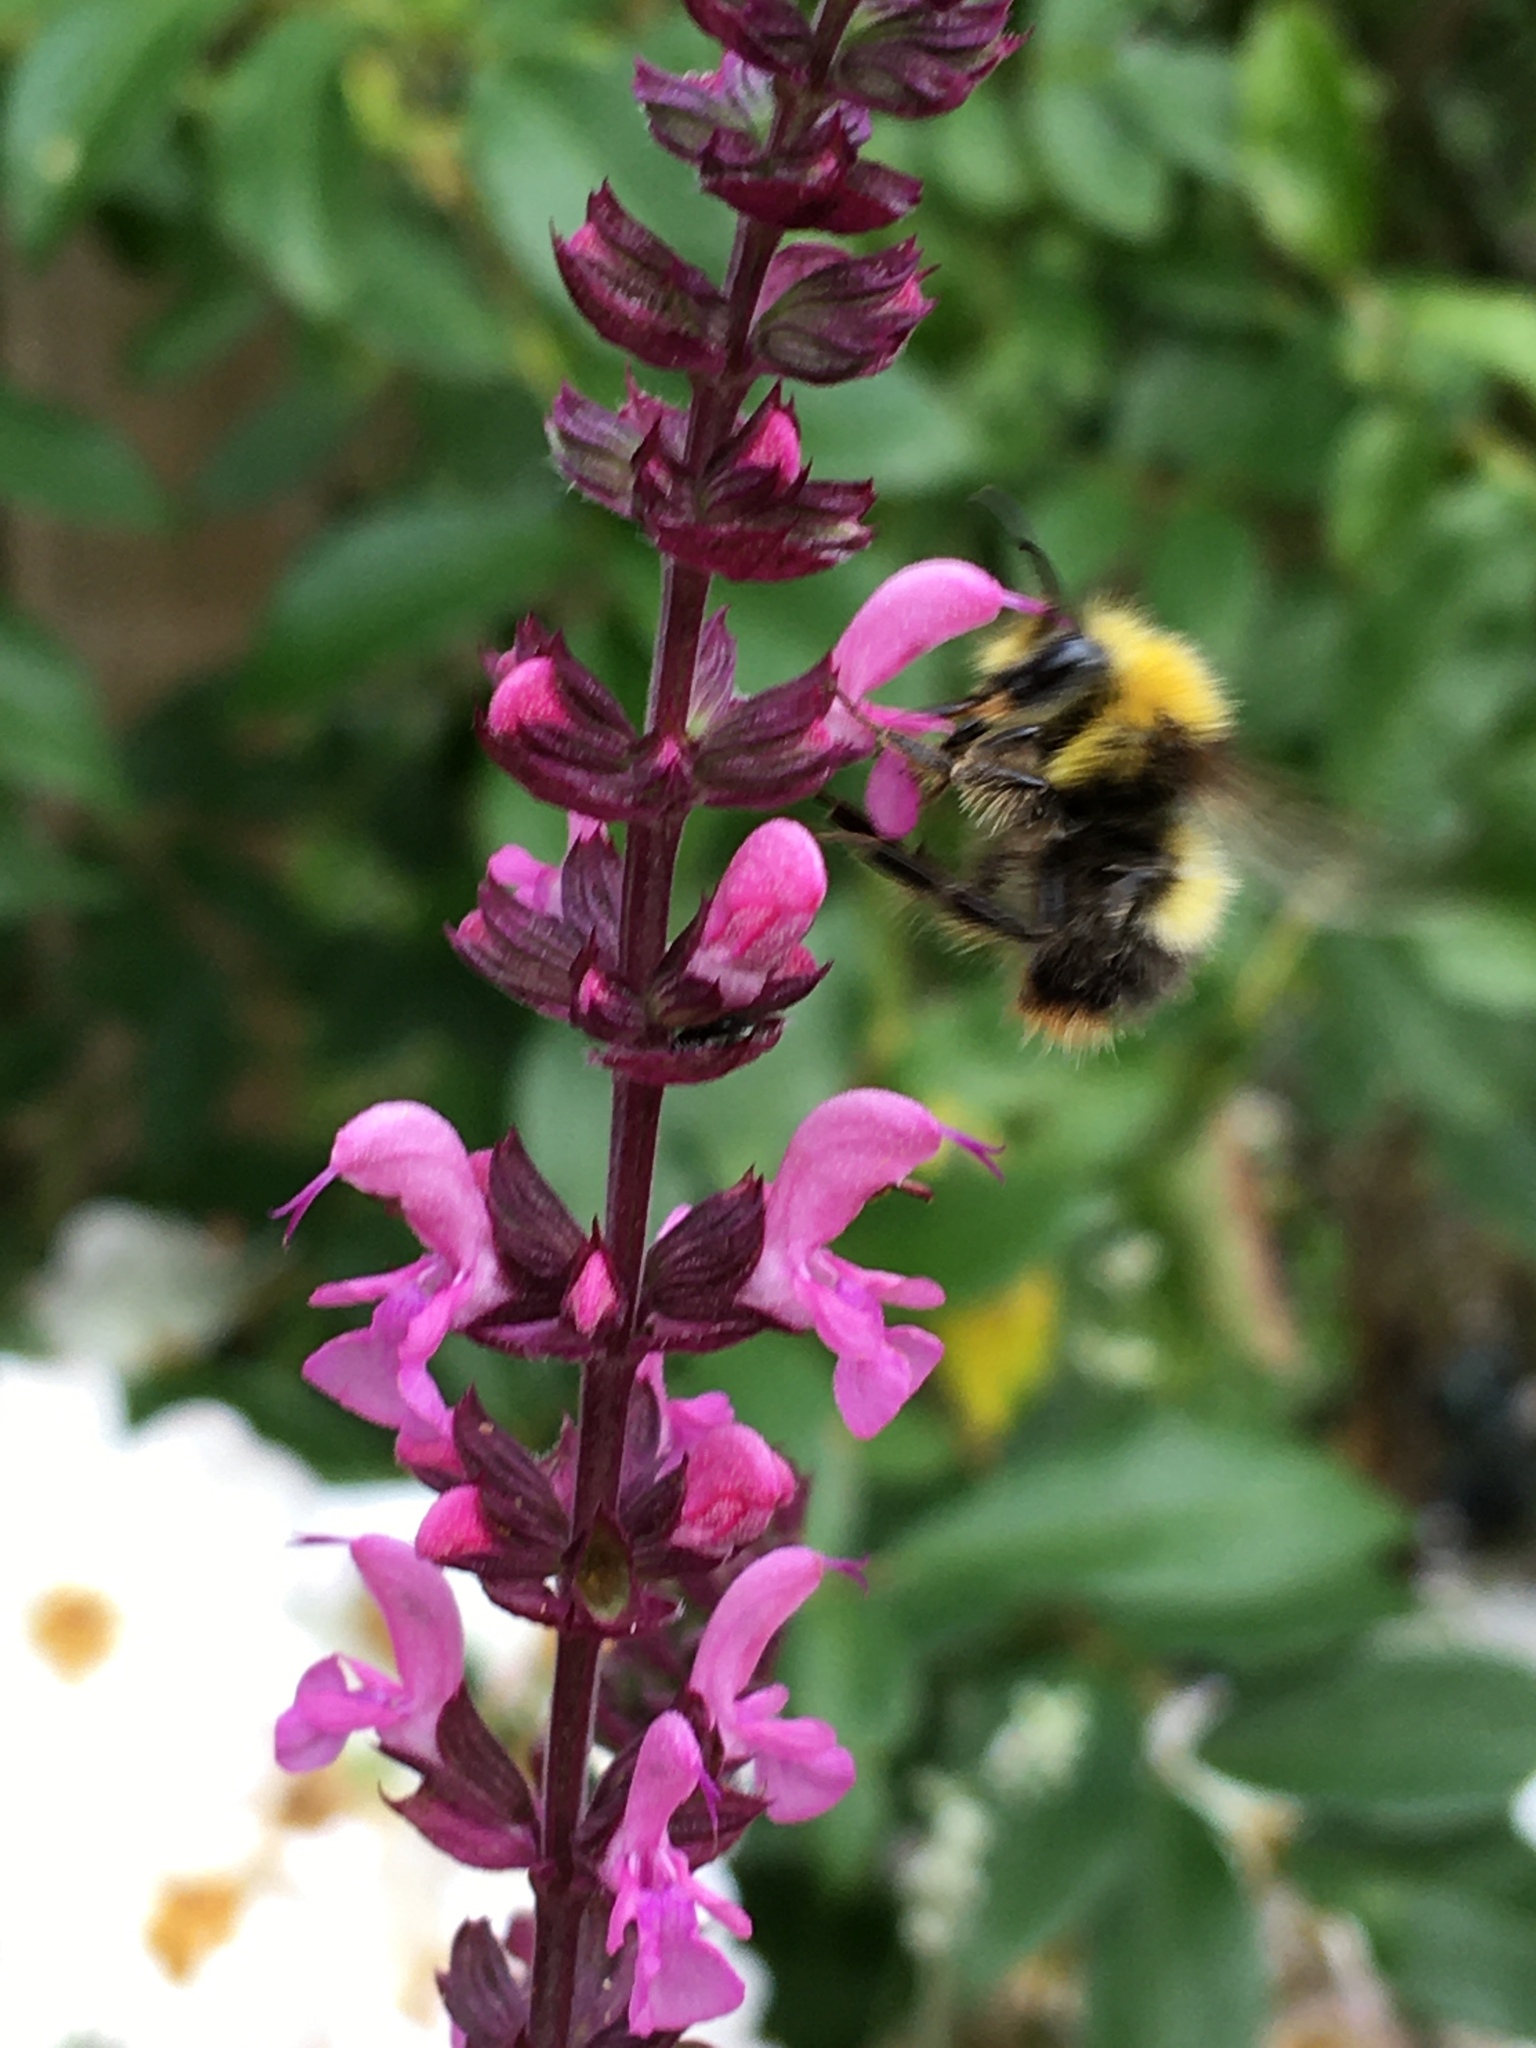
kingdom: Animalia
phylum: Arthropoda
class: Insecta
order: Hymenoptera
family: Apidae
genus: Bombus
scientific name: Bombus pratorum
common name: Early humble-bee
